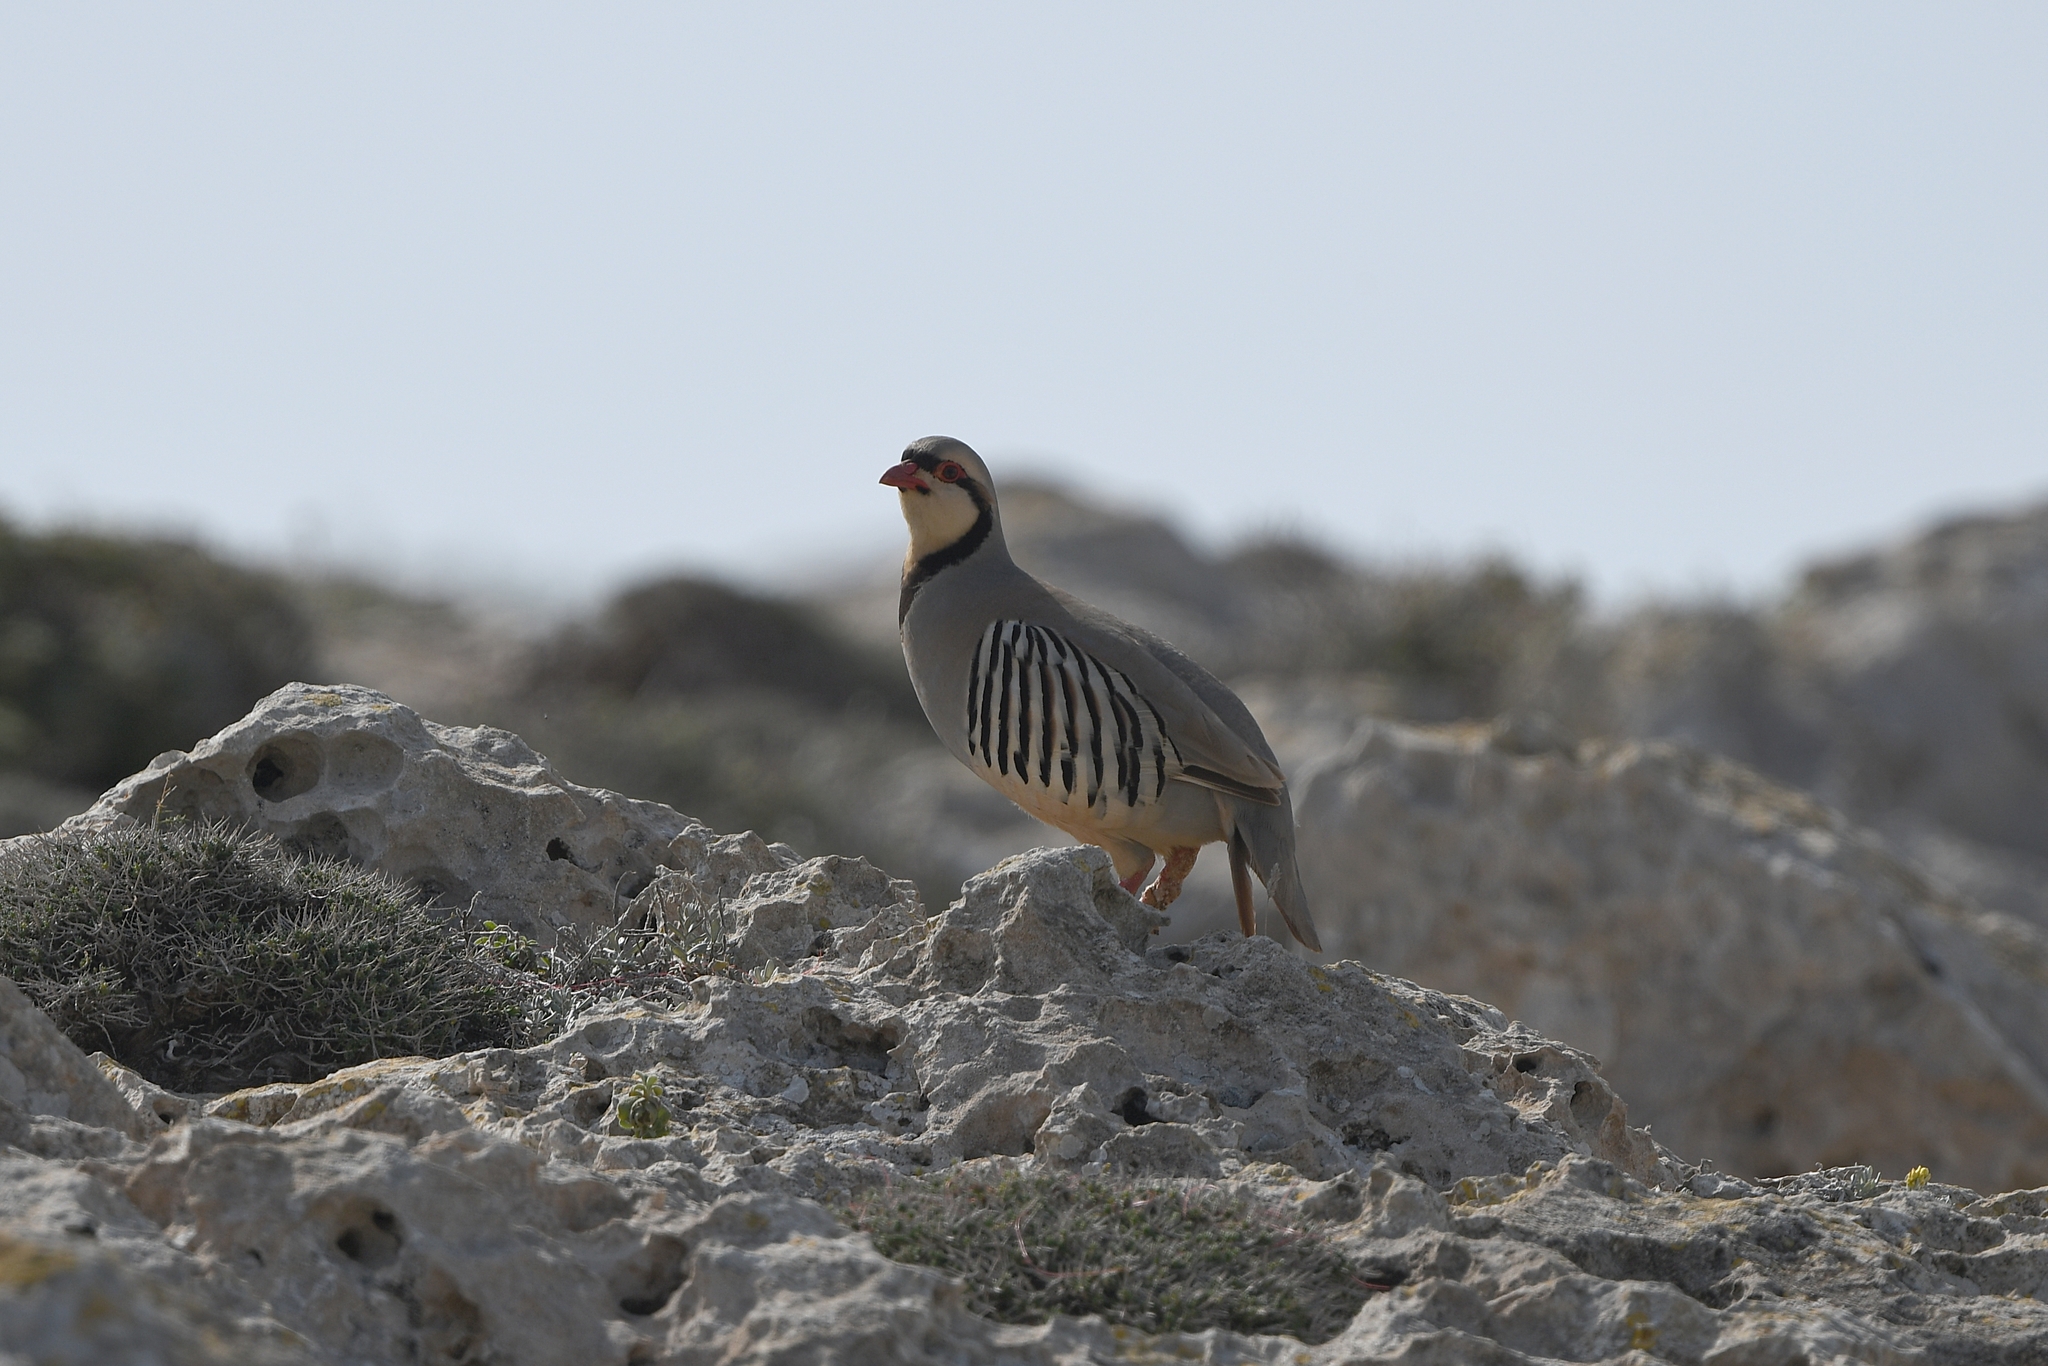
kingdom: Animalia
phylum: Chordata
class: Aves
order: Galliformes
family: Phasianidae
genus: Alectoris
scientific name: Alectoris chukar
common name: Chukar
